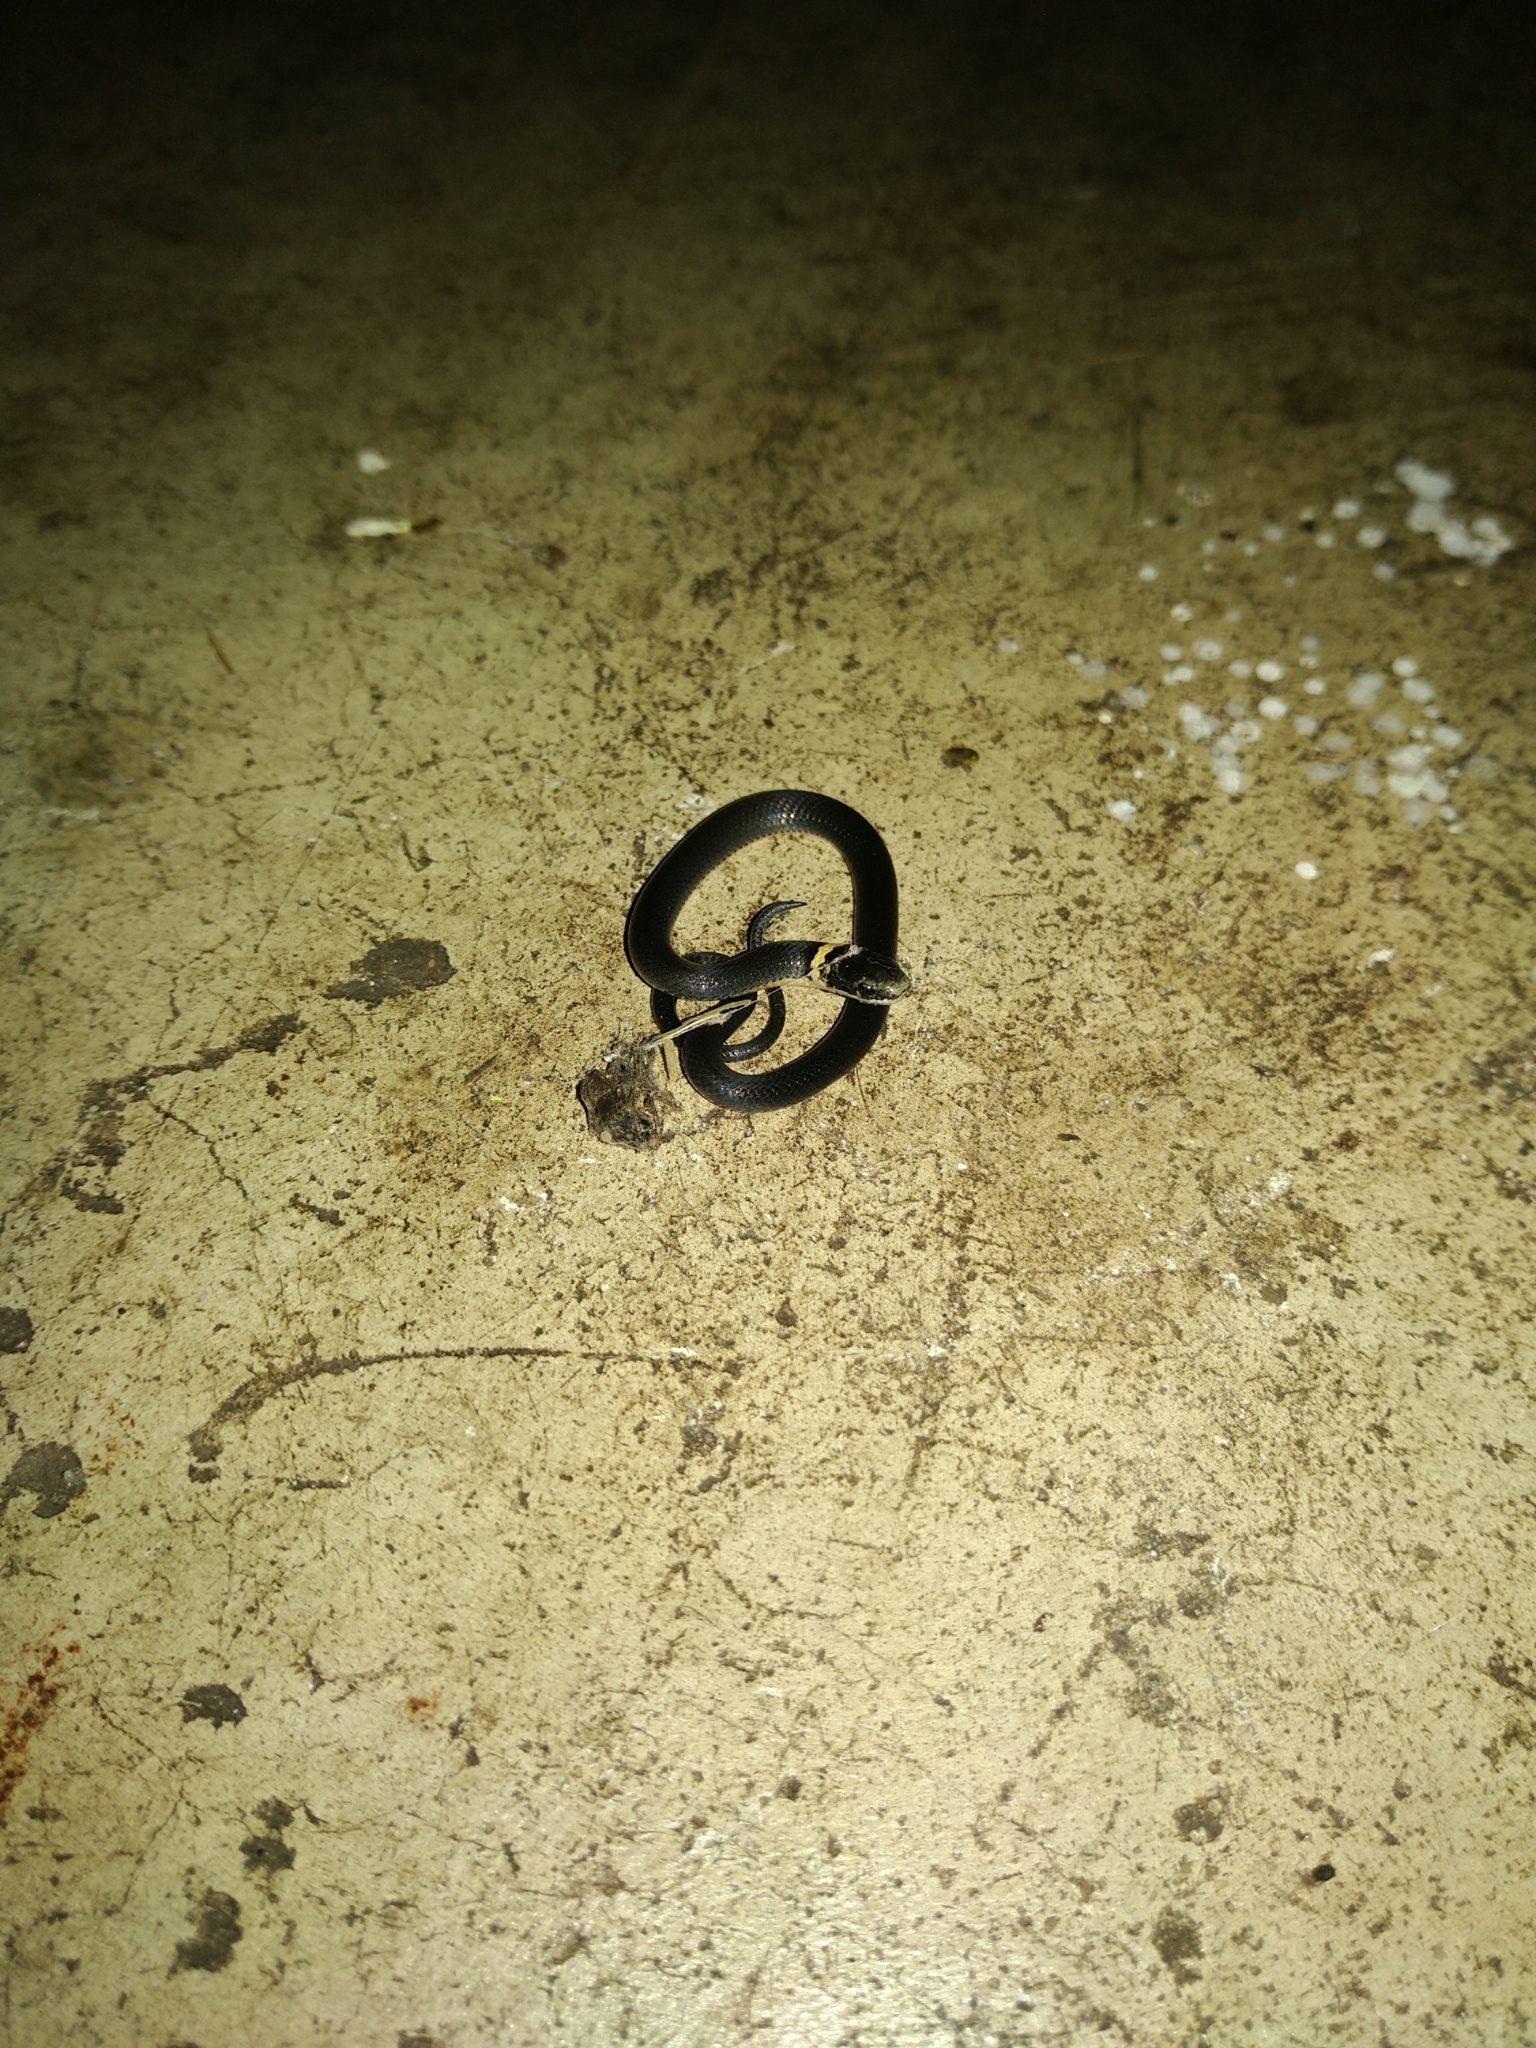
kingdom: Animalia
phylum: Chordata
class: Squamata
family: Colubridae
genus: Diadophis
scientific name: Diadophis punctatus
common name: Ringneck snake
